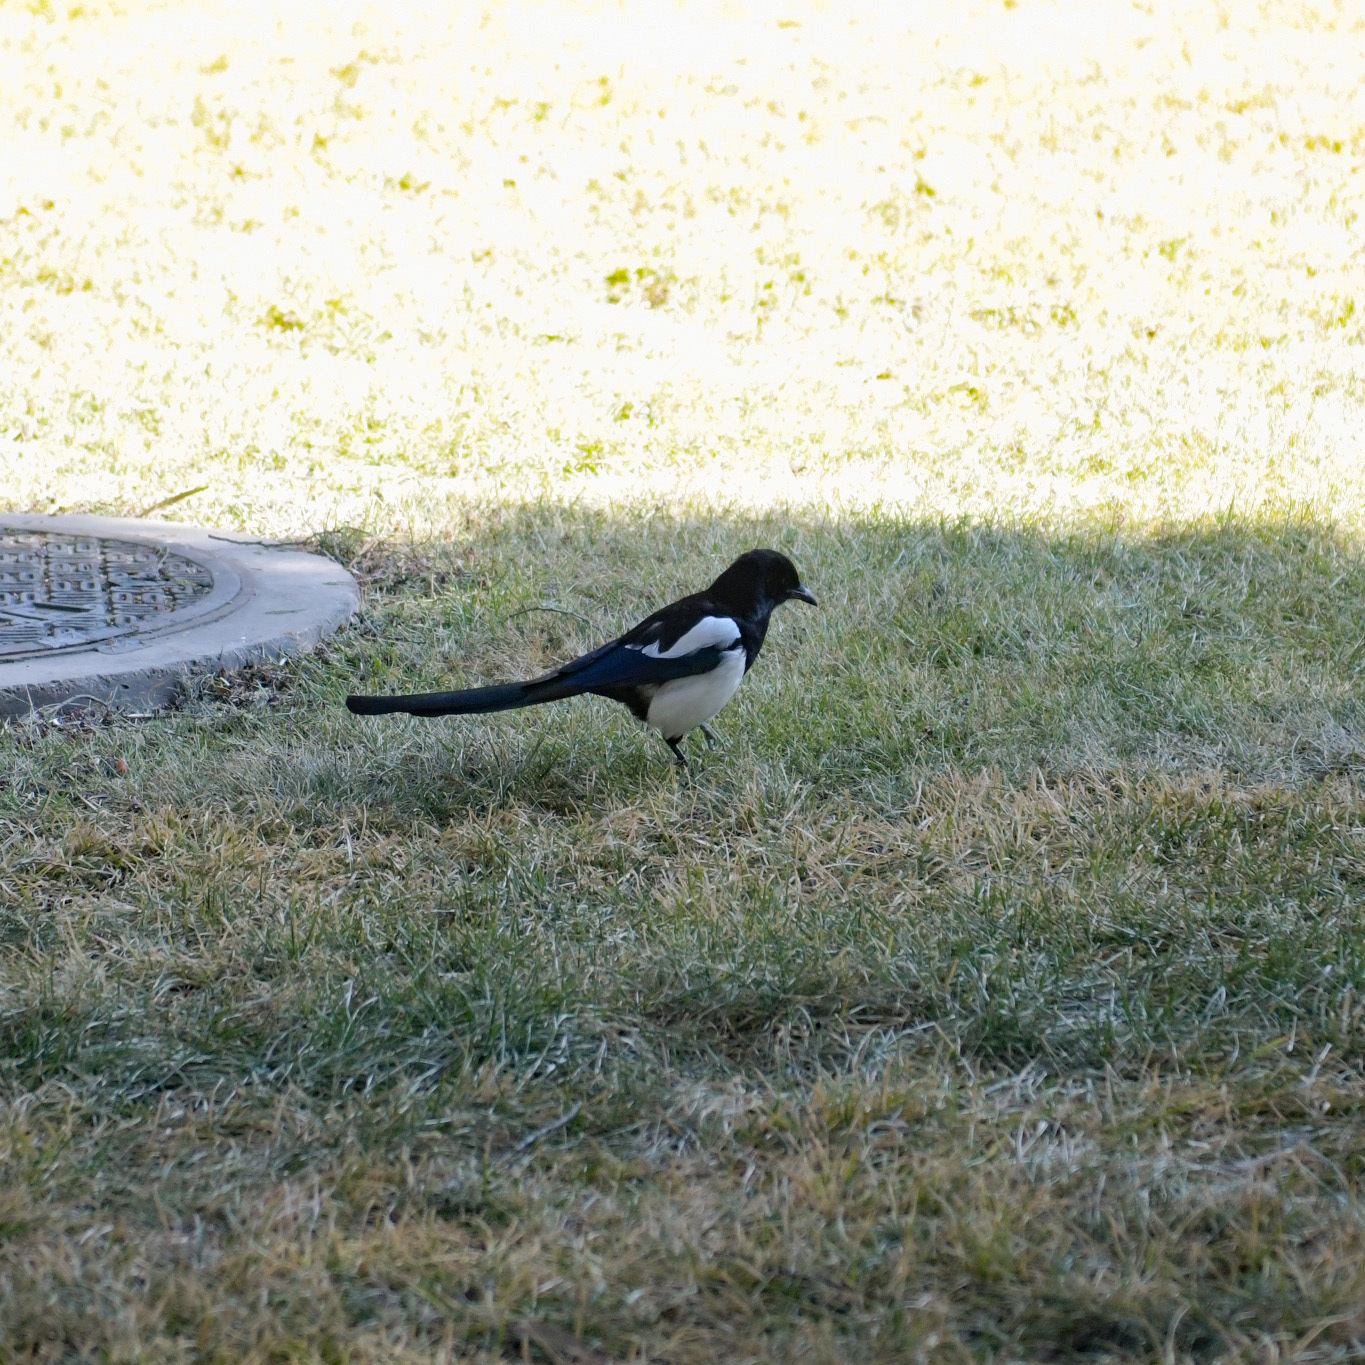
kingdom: Animalia
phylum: Chordata
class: Aves
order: Passeriformes
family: Corvidae
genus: Pica
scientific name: Pica serica
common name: Oriental magpie
